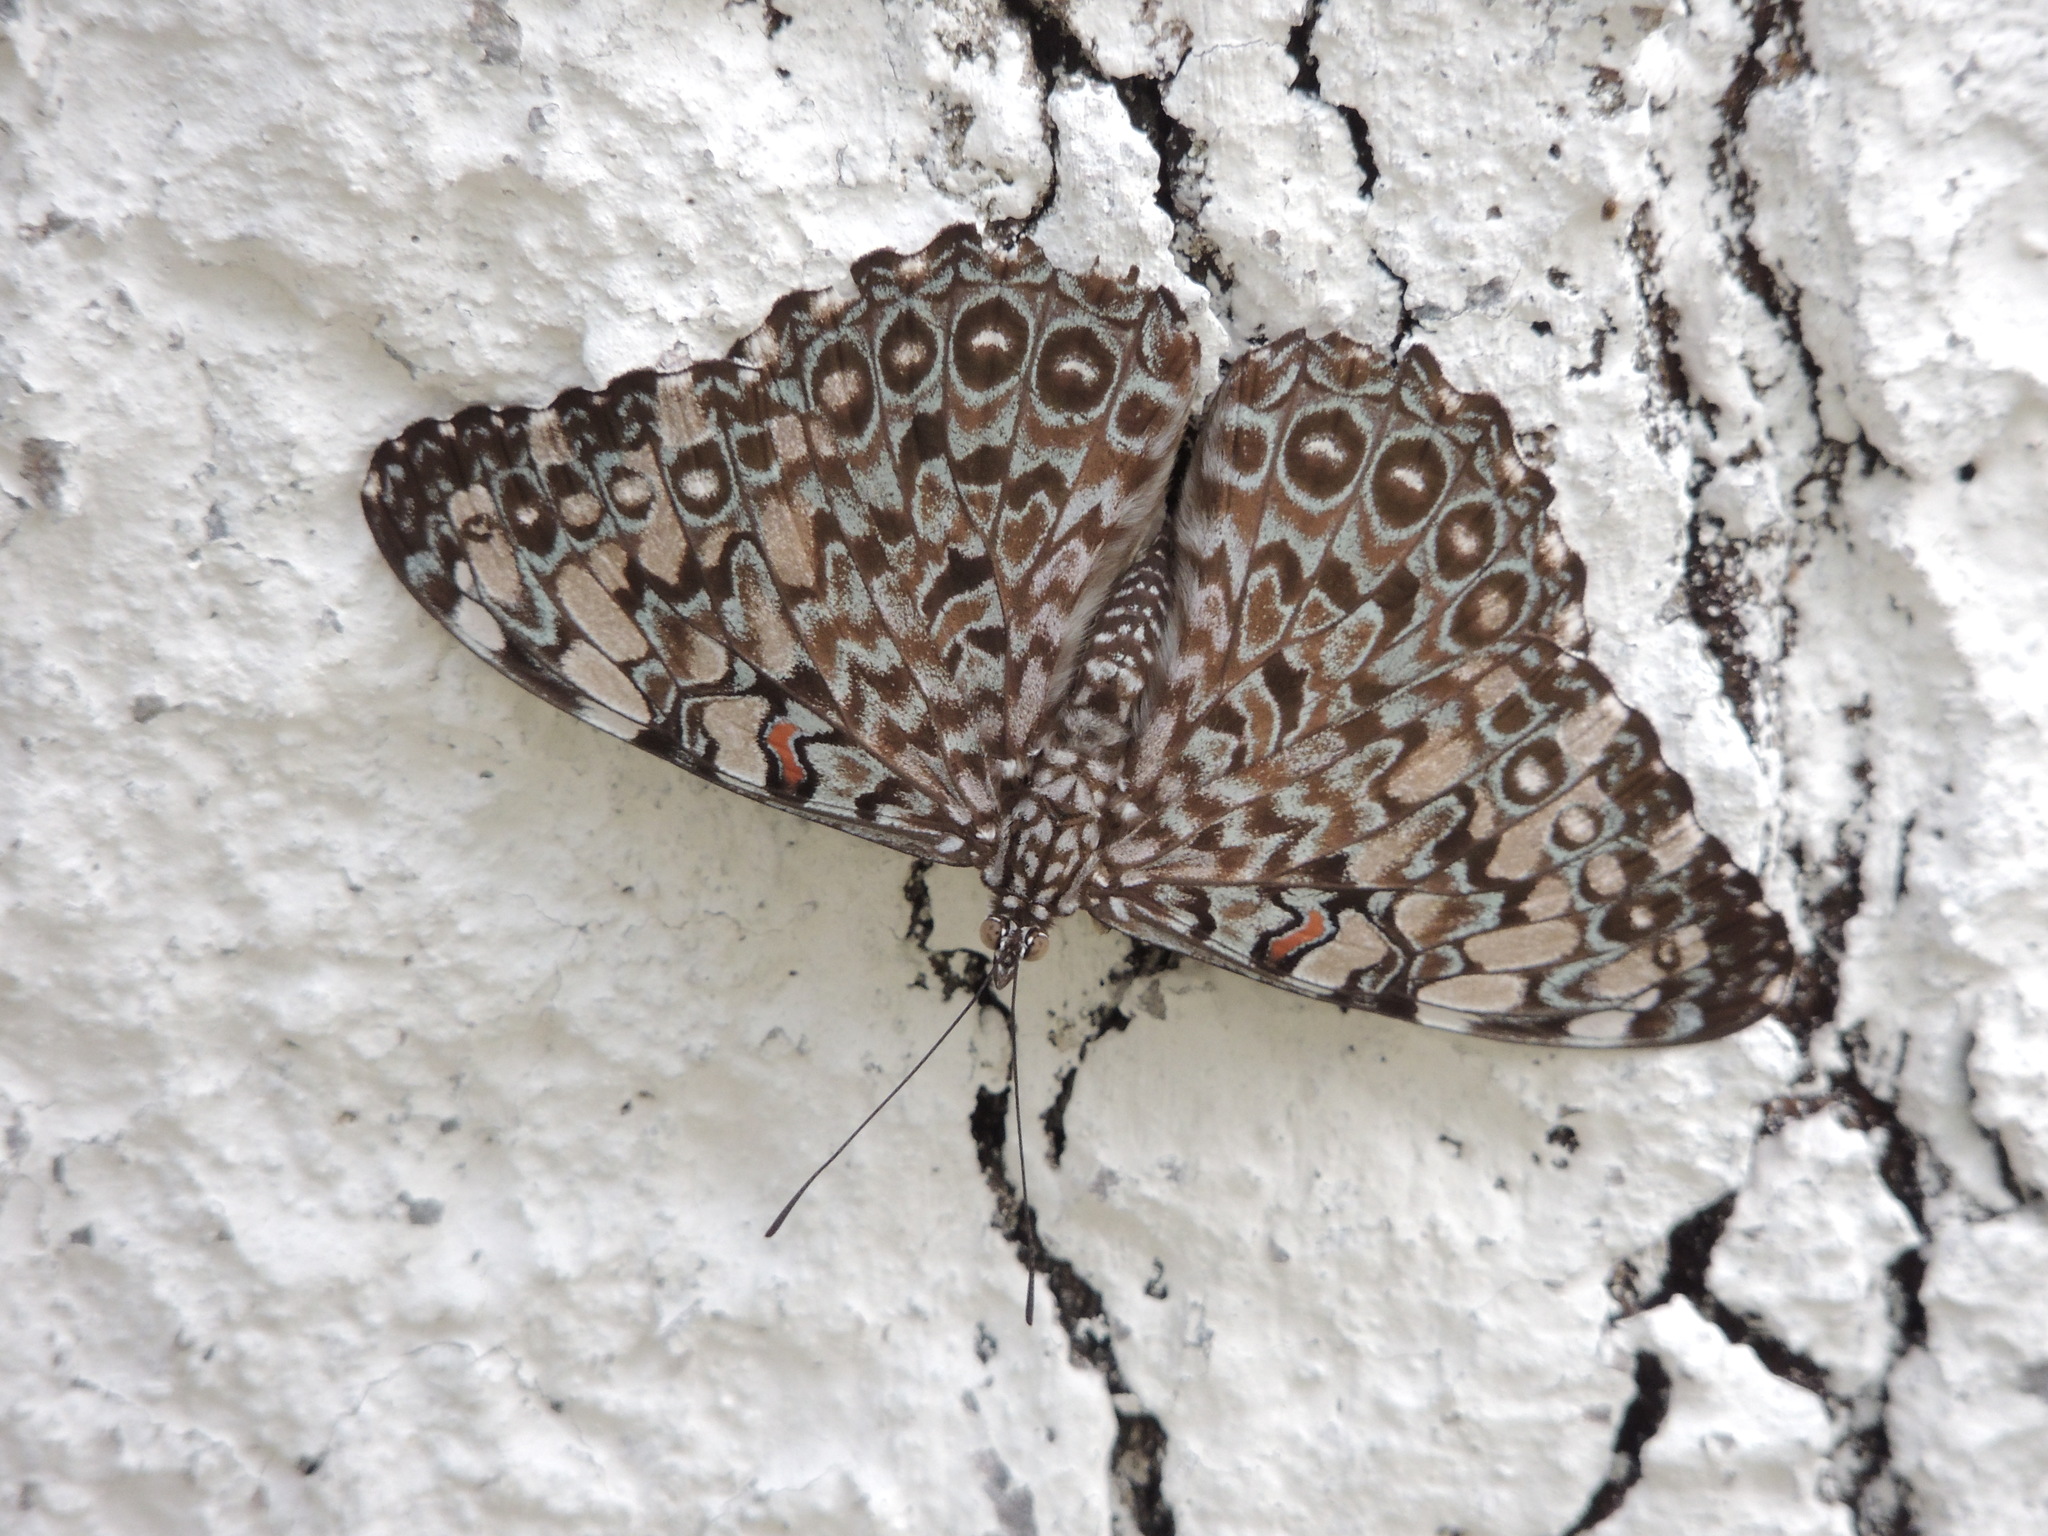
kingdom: Animalia
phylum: Arthropoda
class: Insecta
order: Lepidoptera
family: Nymphalidae
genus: Hamadryas
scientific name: Hamadryas feronia
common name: Variable cracker
